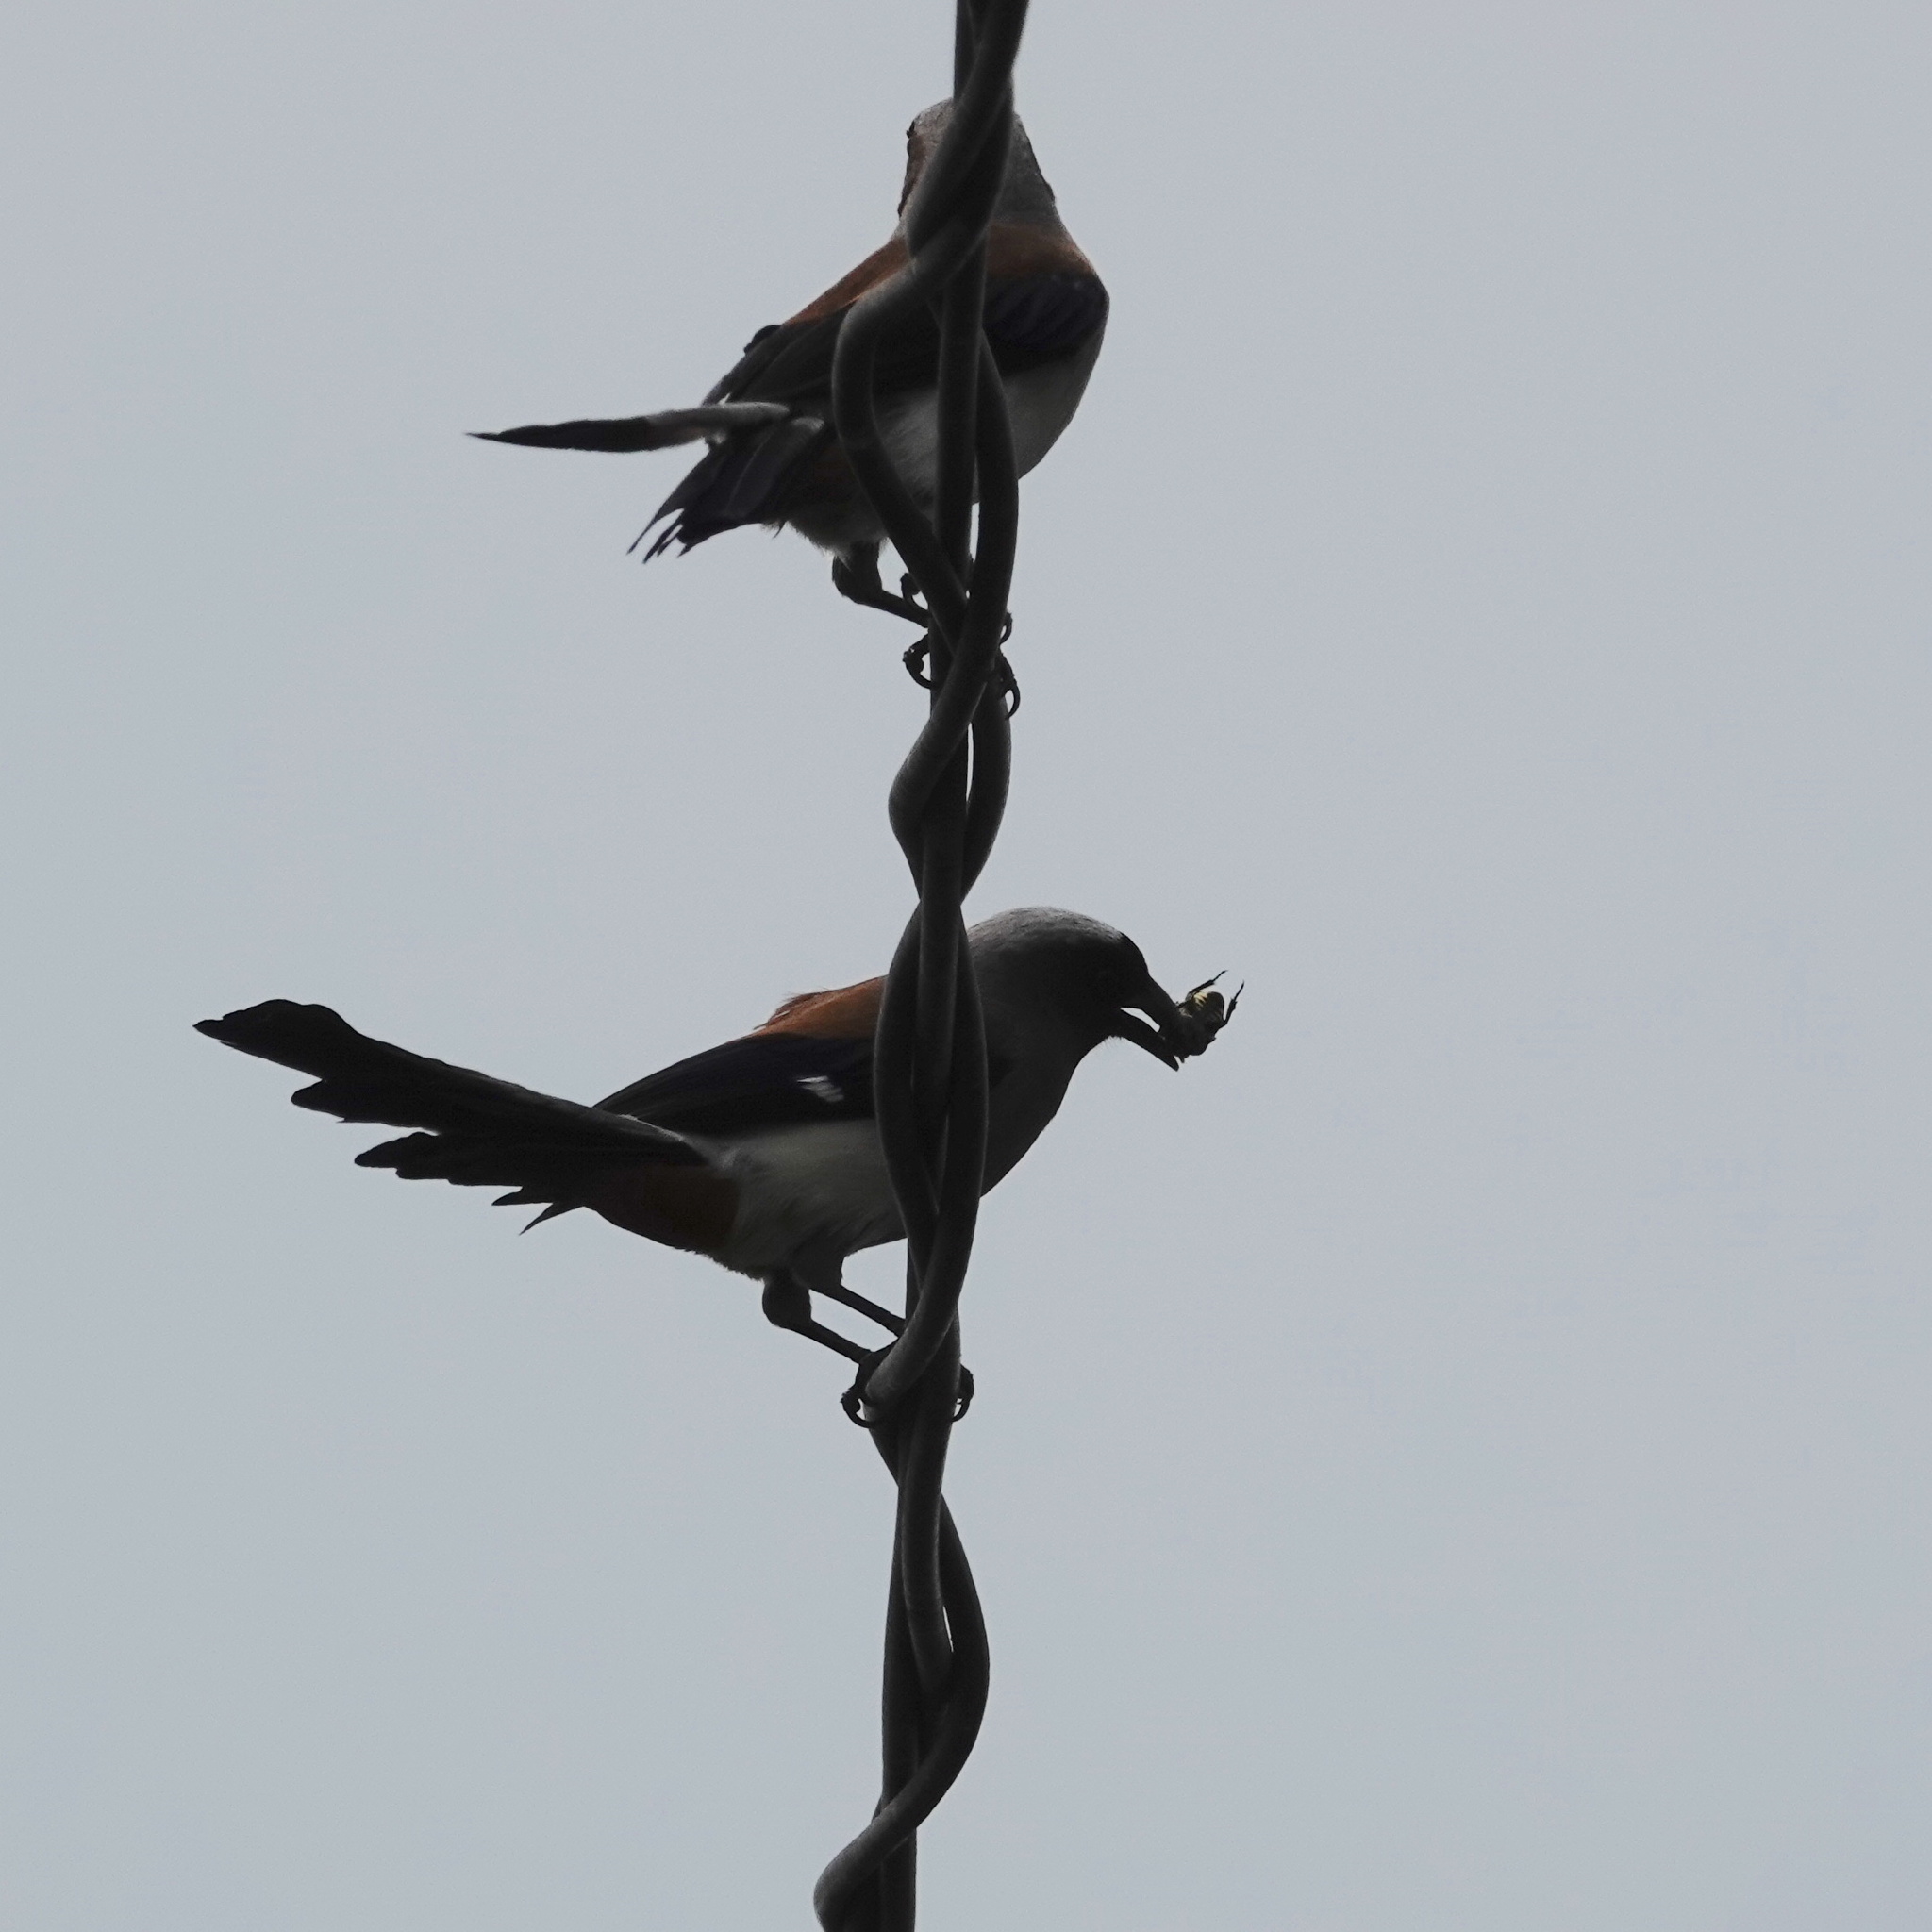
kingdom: Animalia
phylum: Chordata
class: Aves
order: Passeriformes
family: Corvidae
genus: Dendrocitta
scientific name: Dendrocitta formosae
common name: Grey treepie
